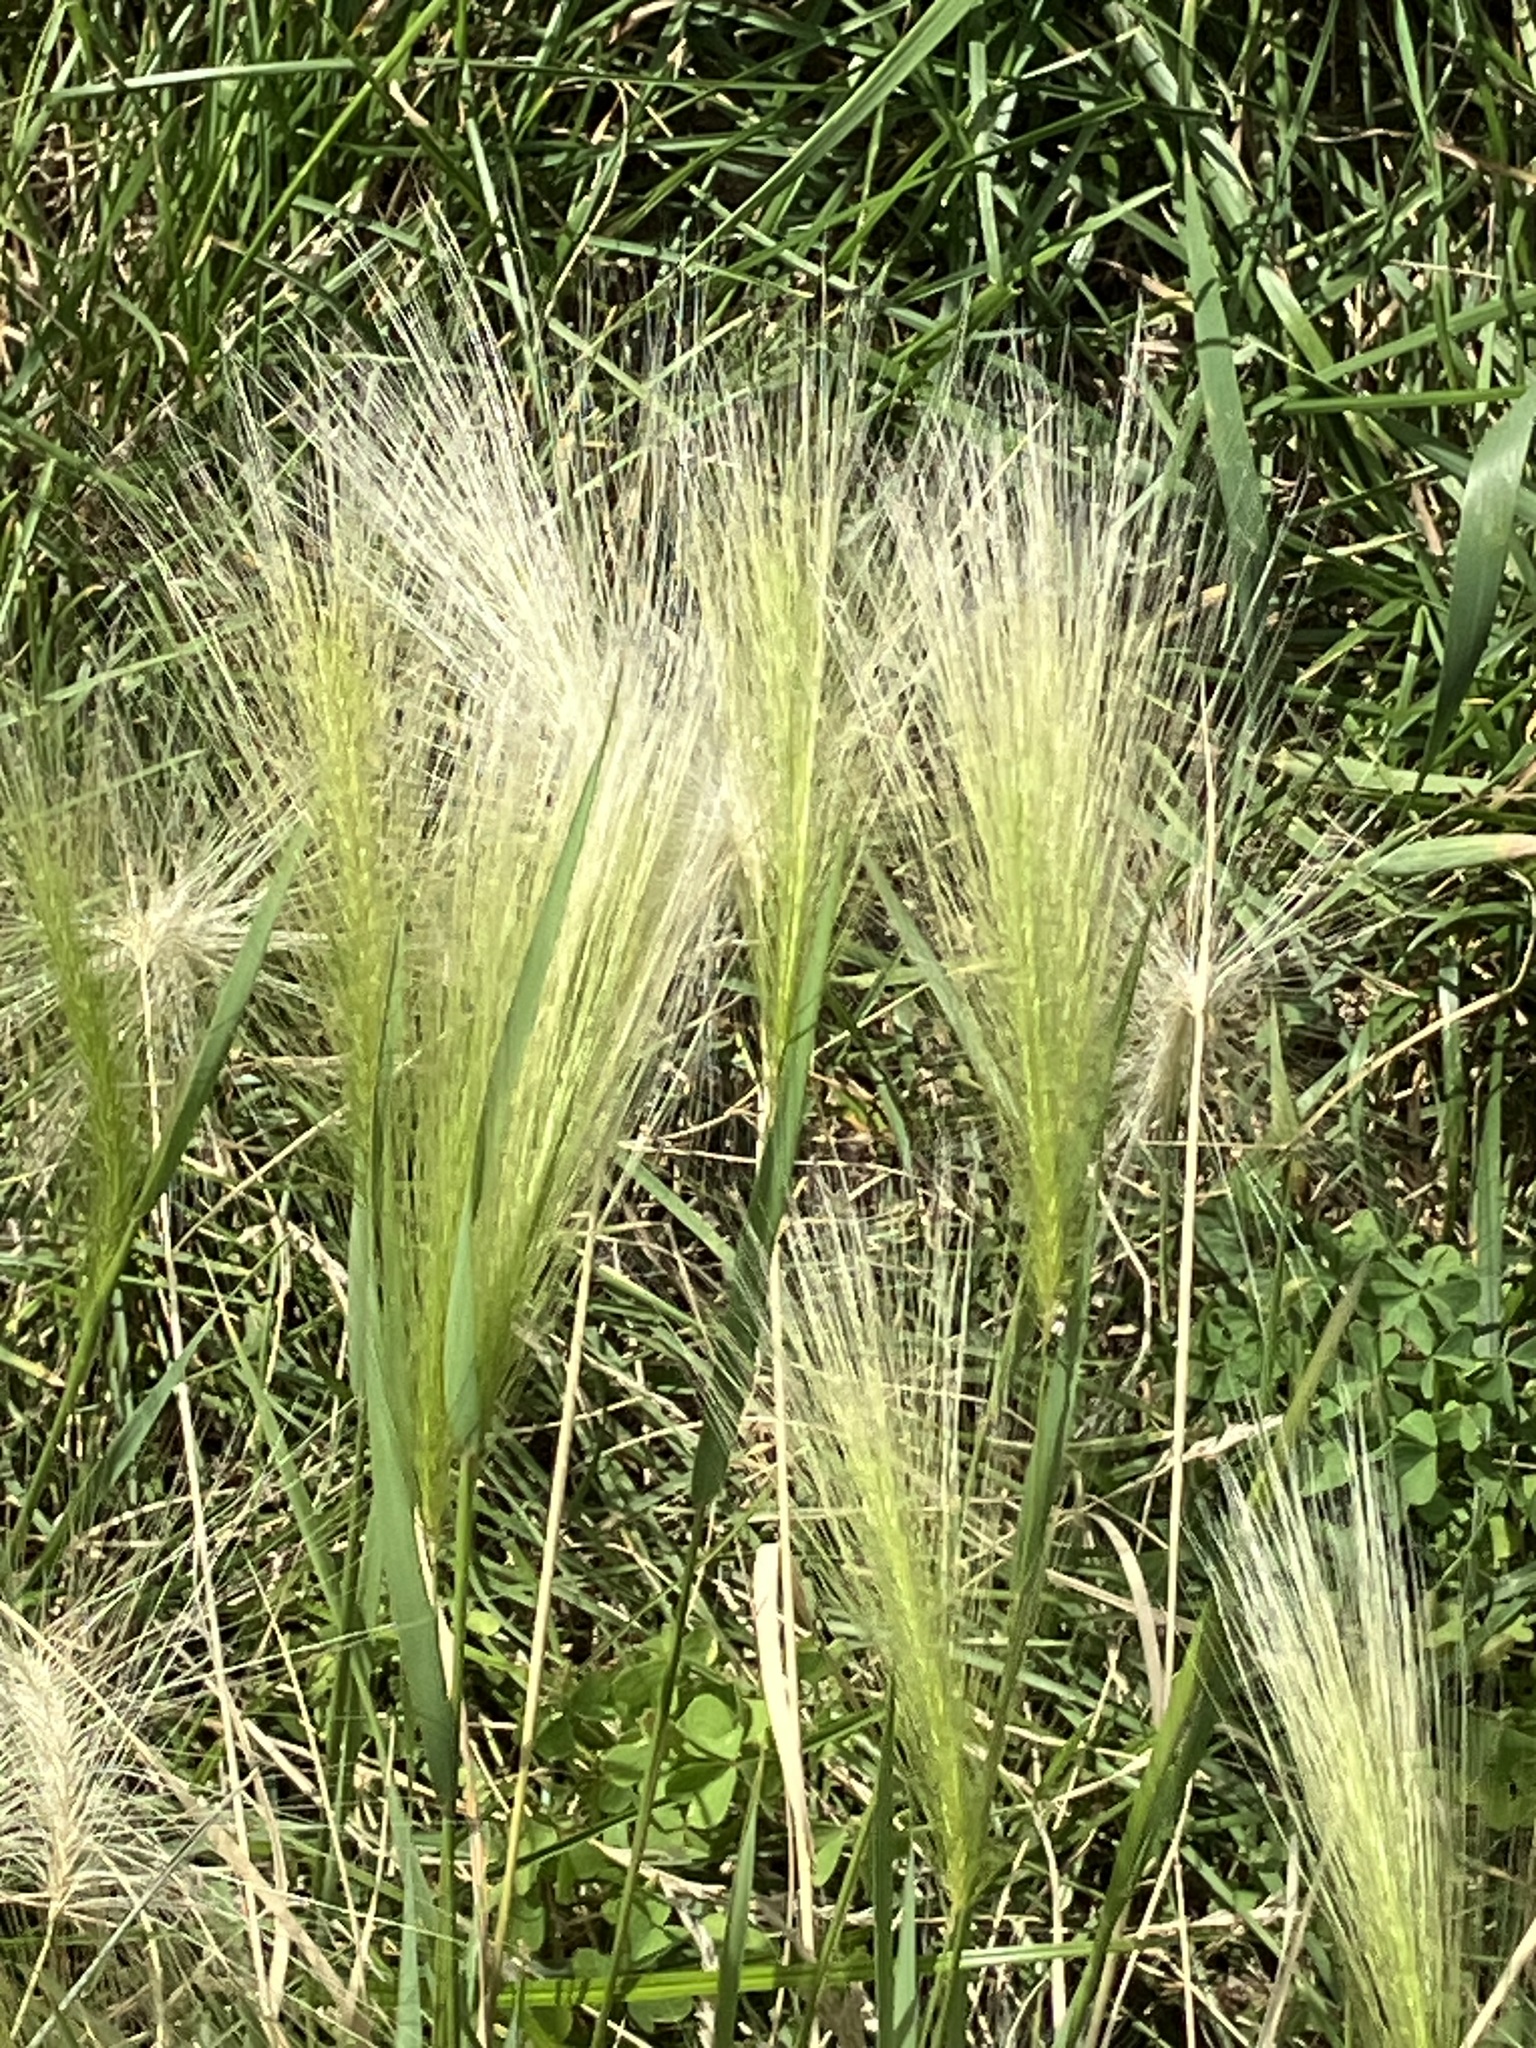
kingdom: Plantae
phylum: Tracheophyta
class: Liliopsida
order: Poales
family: Poaceae
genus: Hordeum
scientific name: Hordeum jubatum
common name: Foxtail barley
